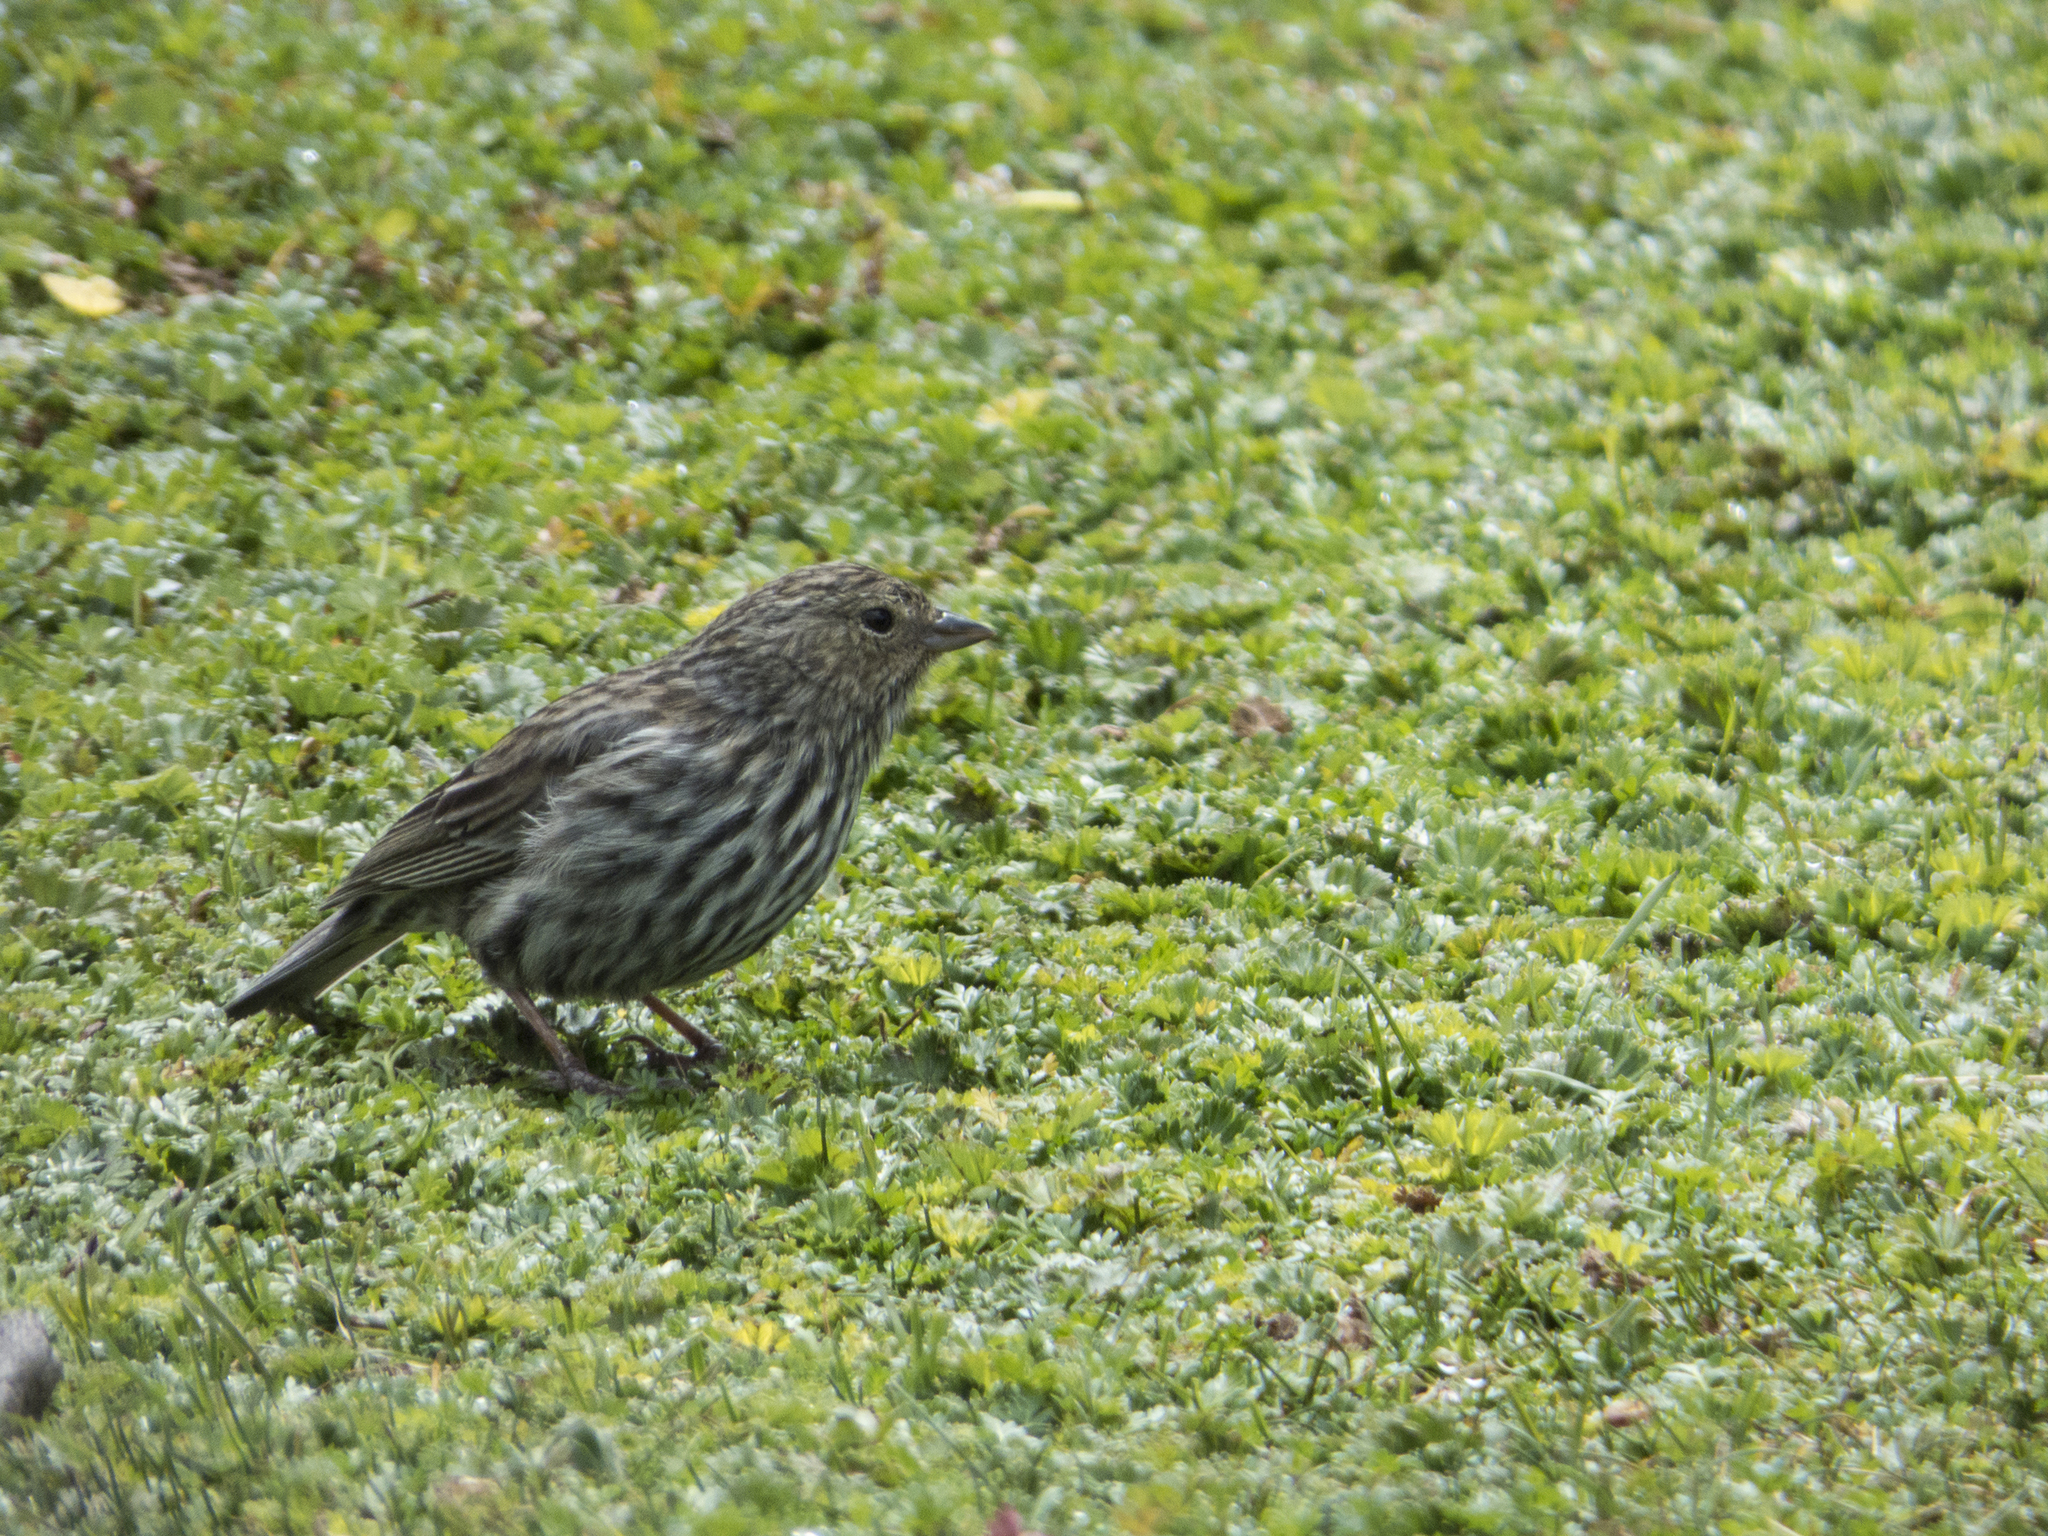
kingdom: Animalia
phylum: Chordata
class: Aves
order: Passeriformes
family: Thraupidae
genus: Geospizopsis
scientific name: Geospizopsis unicolor
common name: Plumbeous sierra-finch
